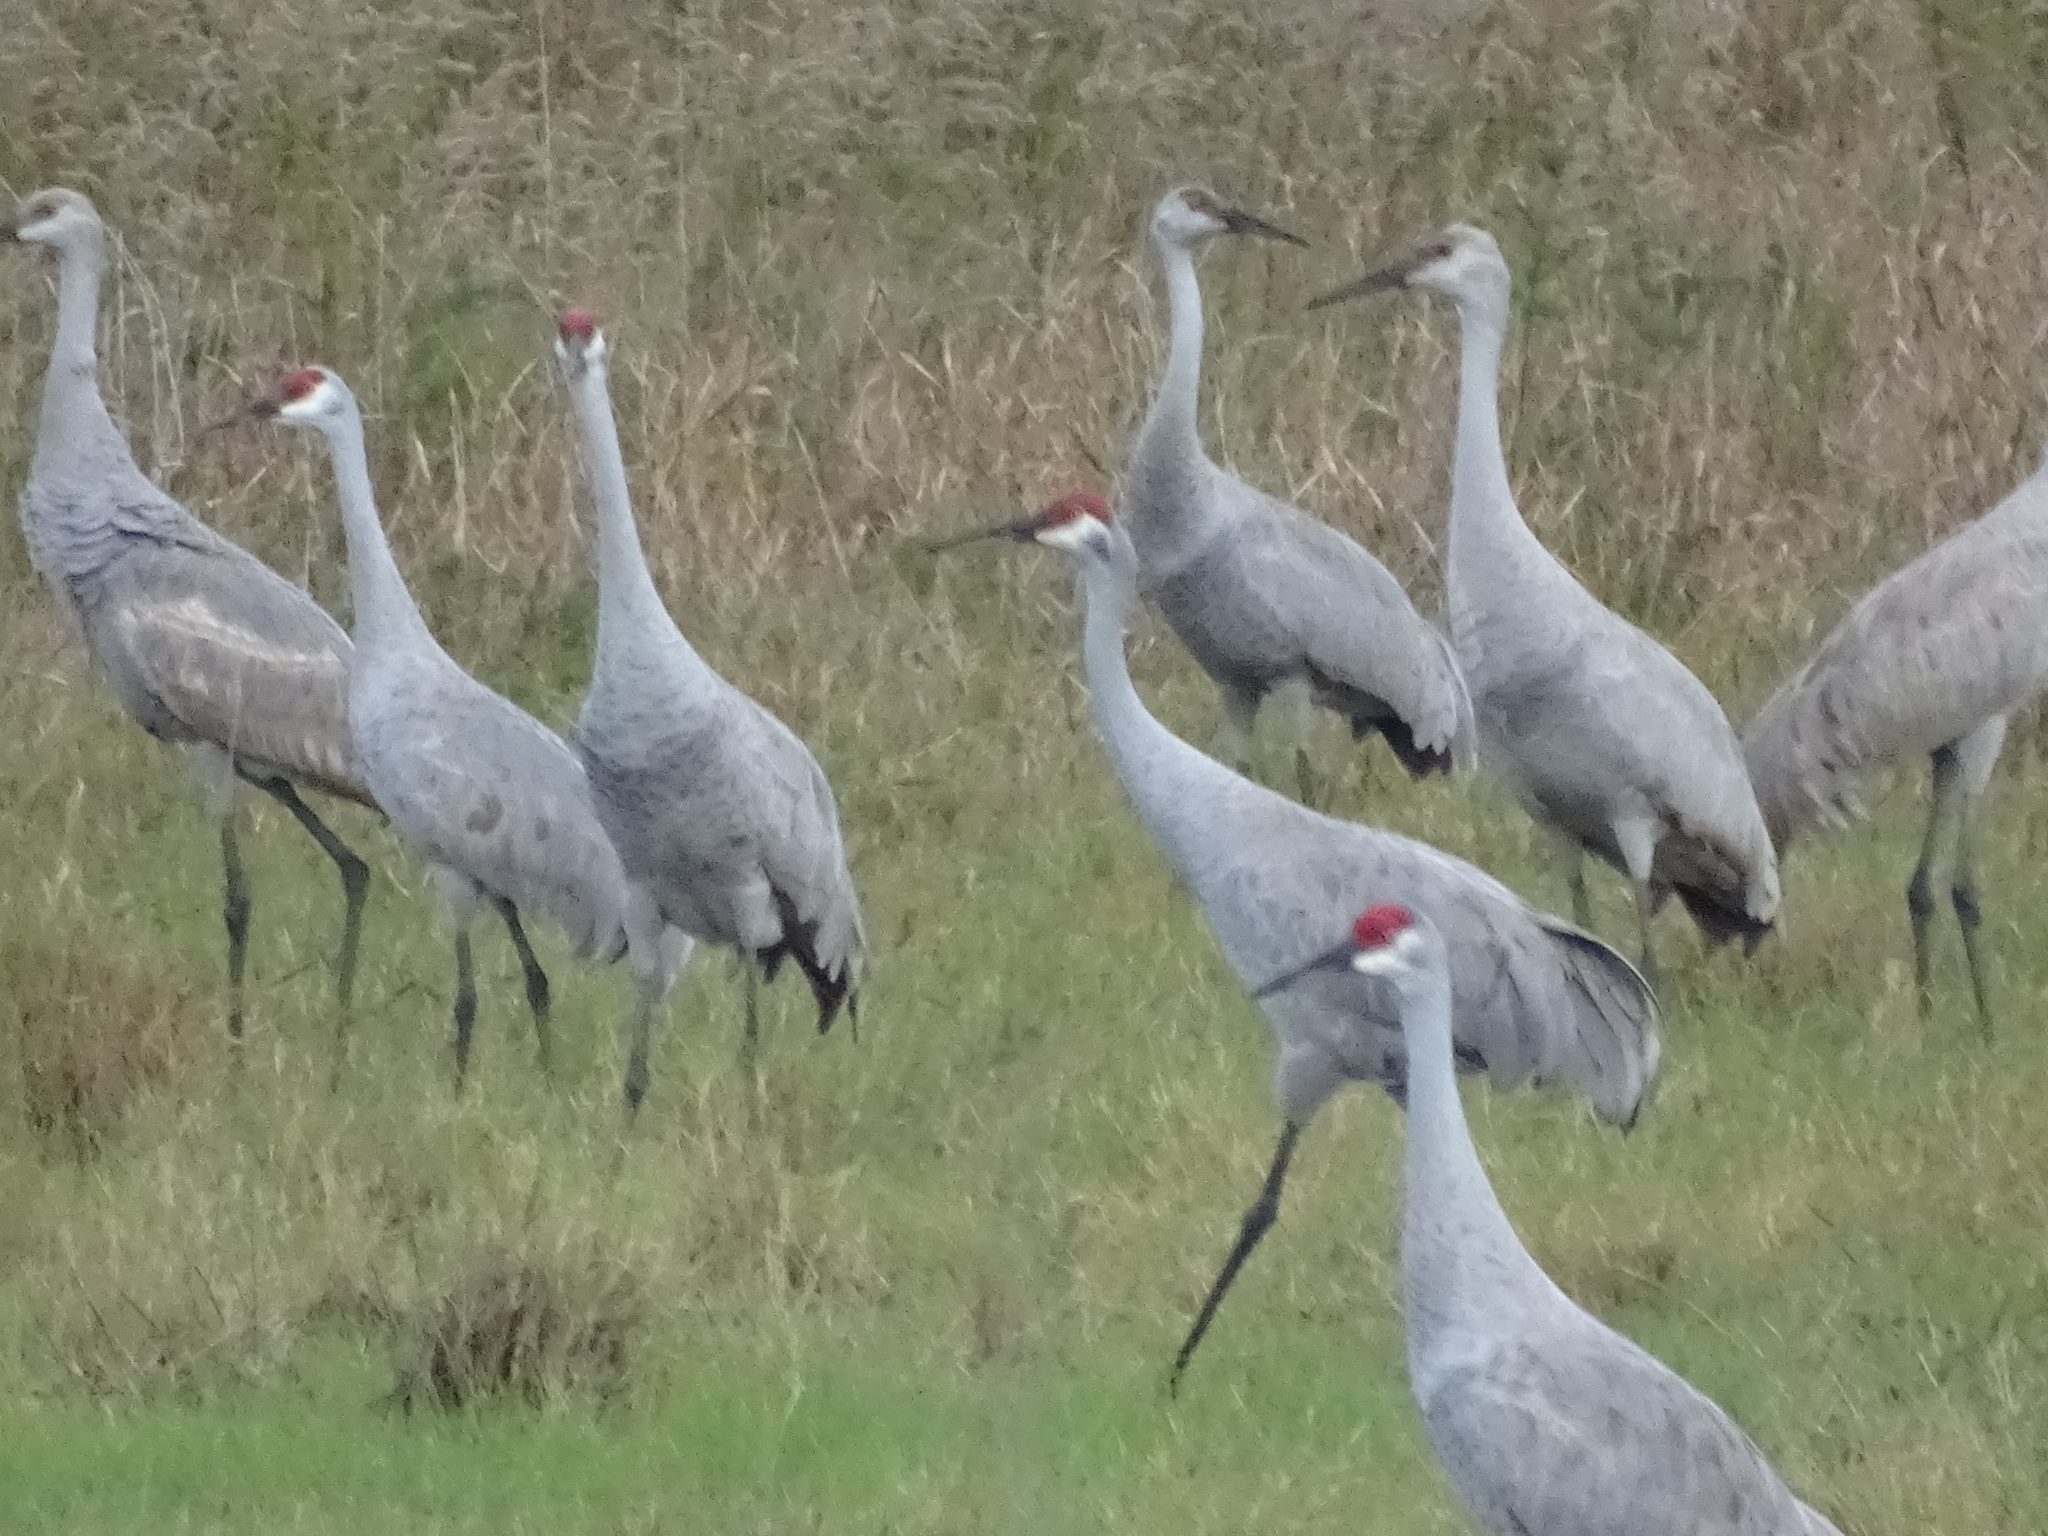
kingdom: Animalia
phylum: Chordata
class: Aves
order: Gruiformes
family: Gruidae
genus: Grus
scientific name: Grus canadensis
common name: Sandhill crane
